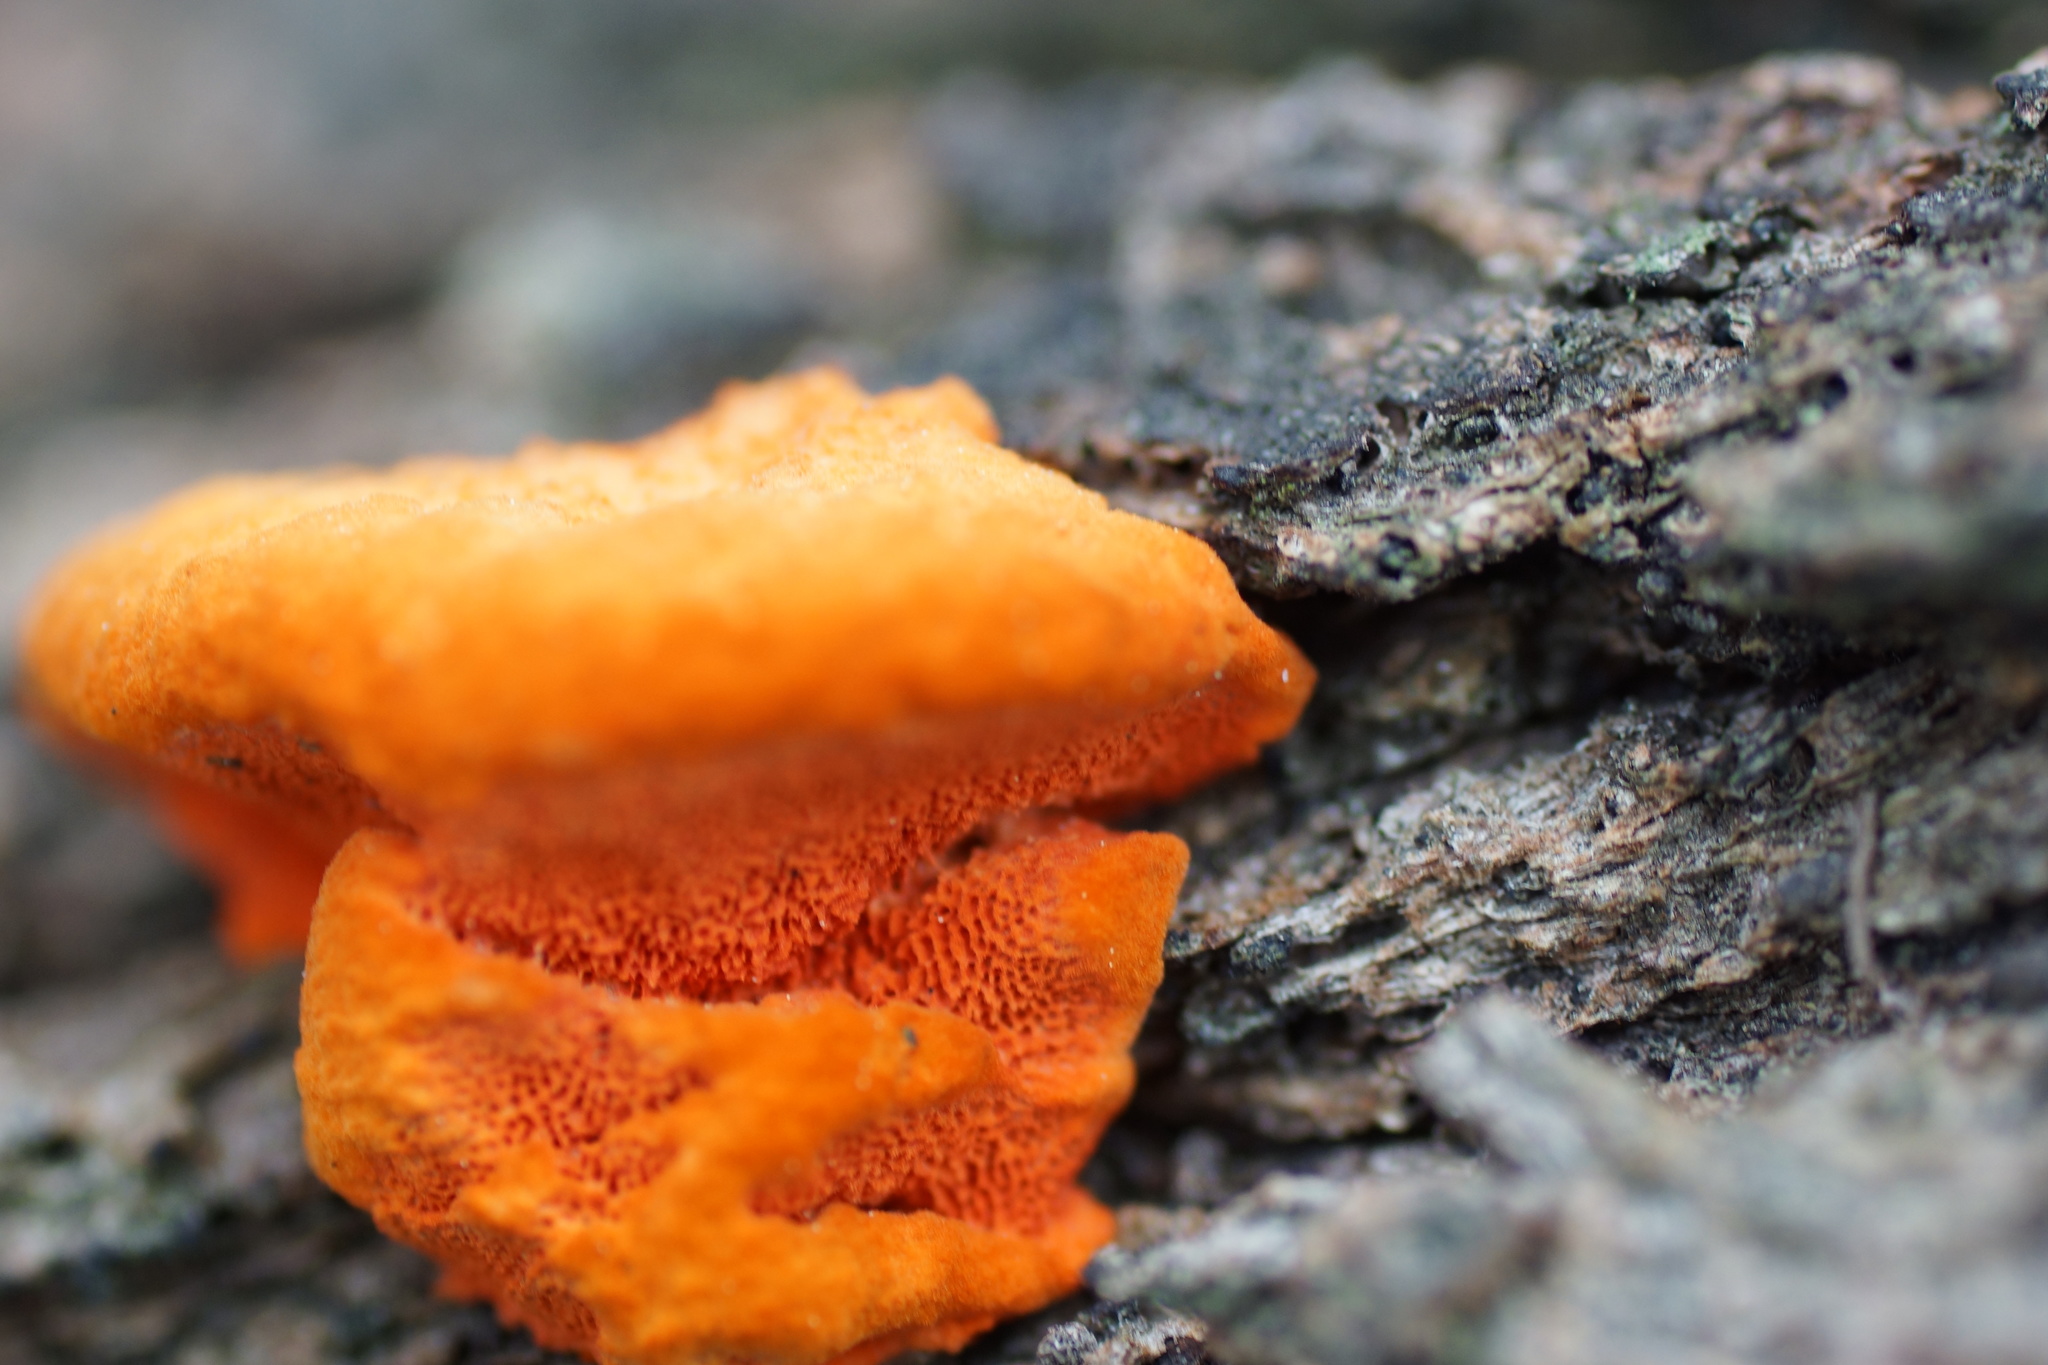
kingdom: Fungi
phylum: Basidiomycota
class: Agaricomycetes
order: Polyporales
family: Polyporaceae
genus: Trametes
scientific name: Trametes coccinea
